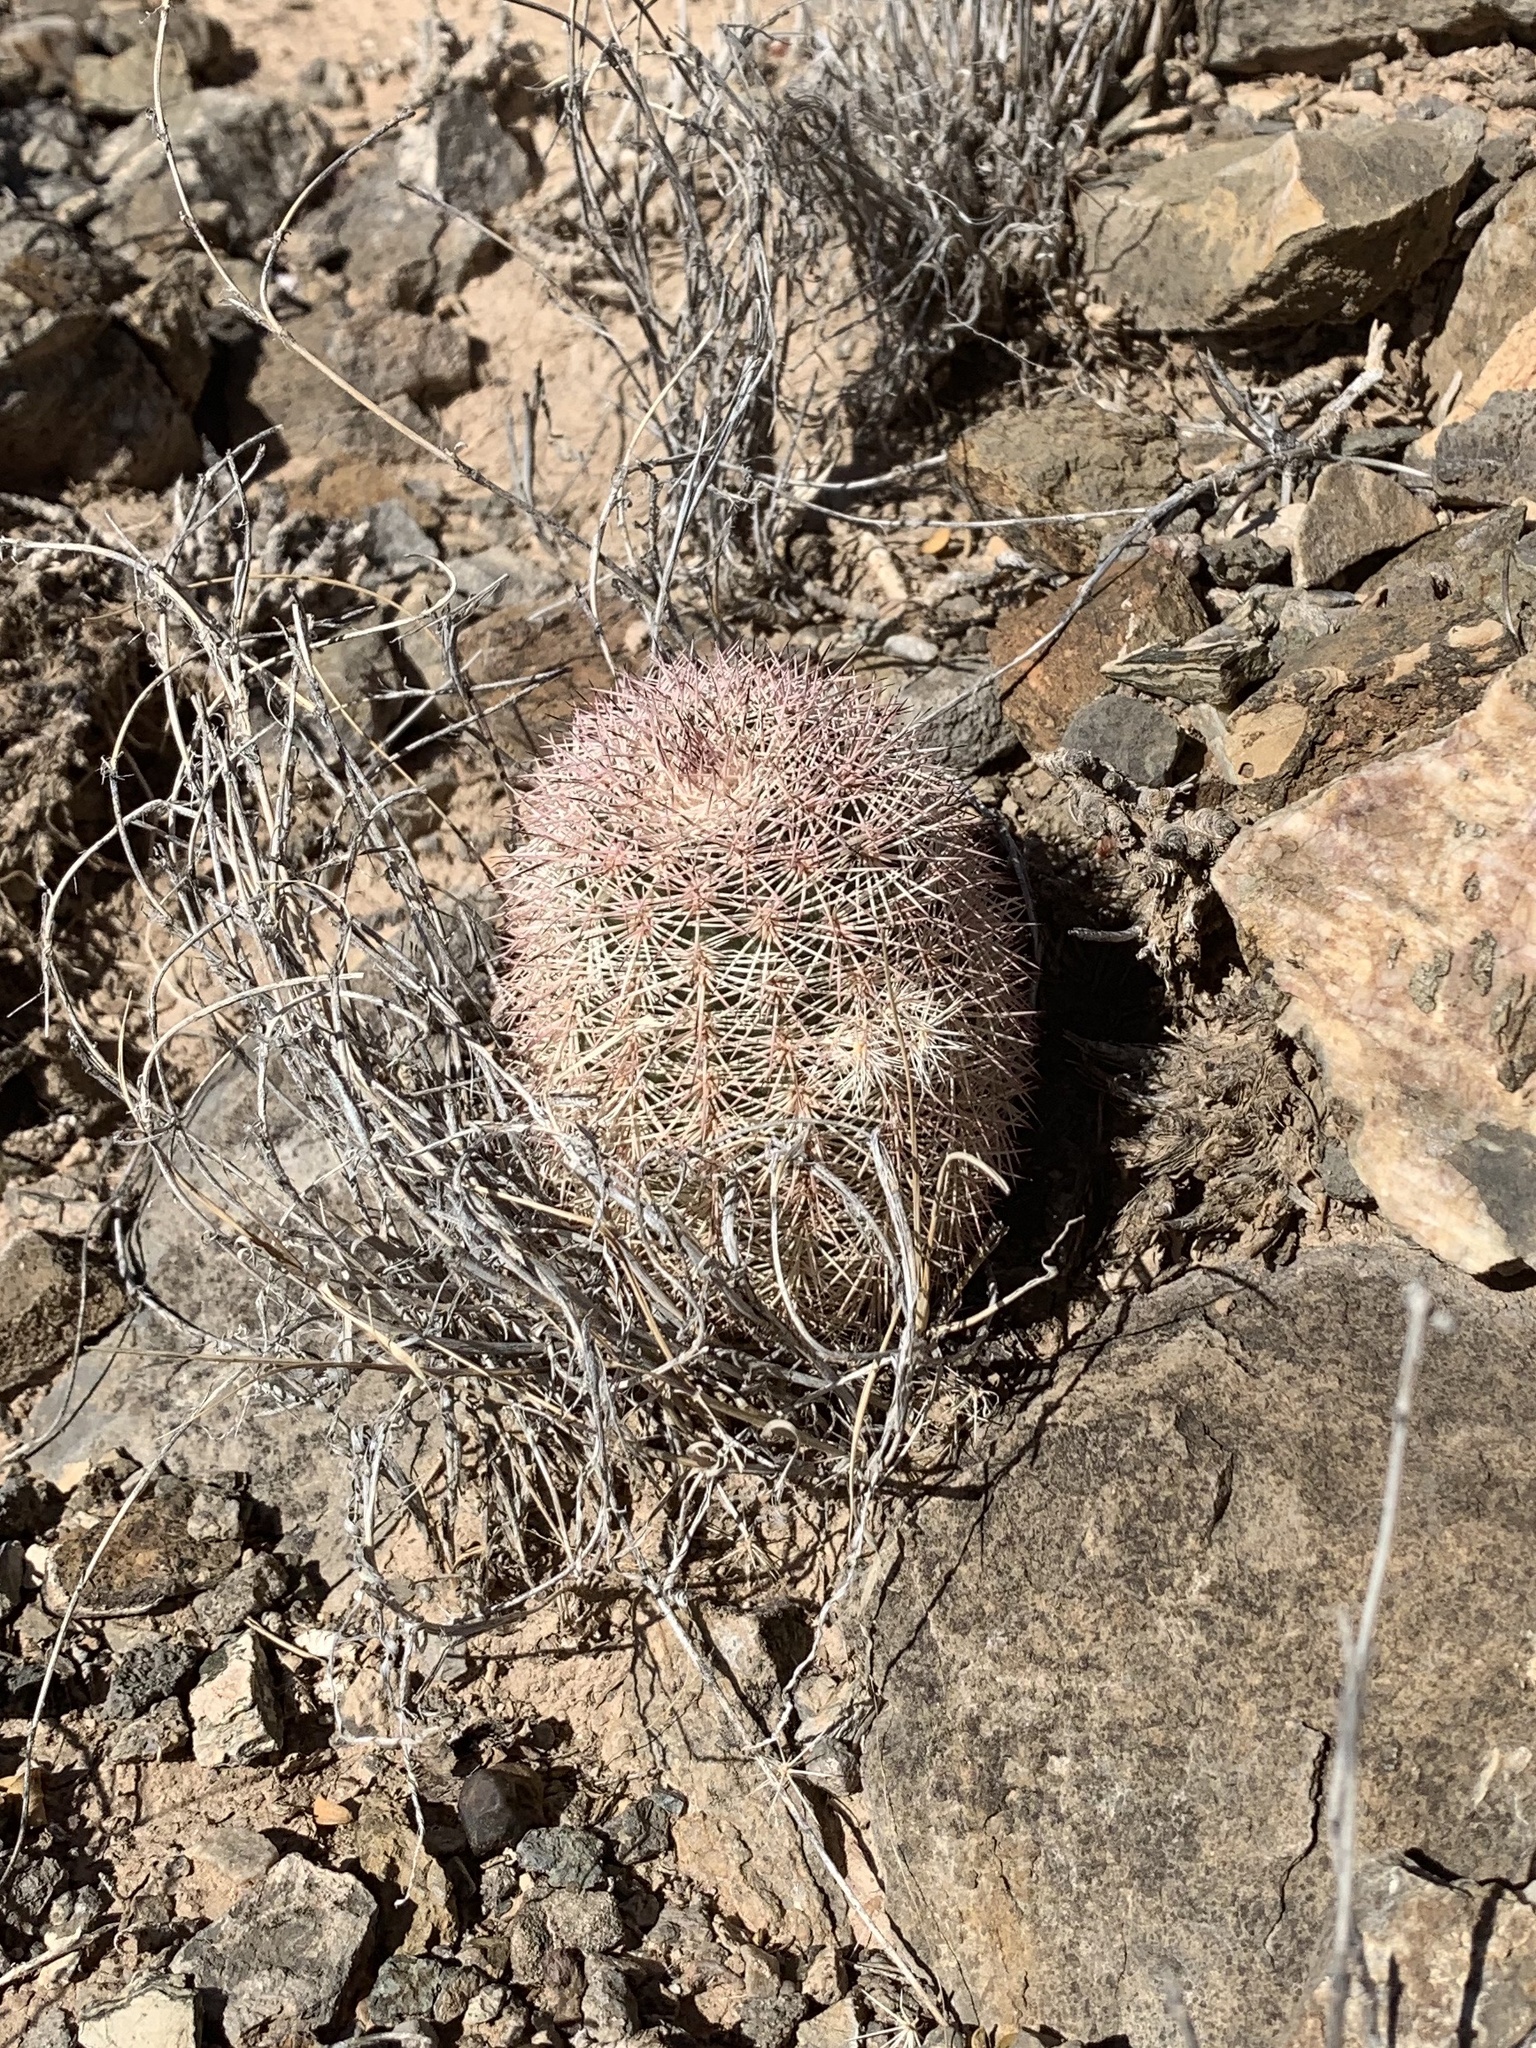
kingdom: Plantae
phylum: Tracheophyta
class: Magnoliopsida
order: Caryophyllales
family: Cactaceae
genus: Echinocereus
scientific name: Echinocereus dasyacanthus
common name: Spiny hedgehog cactus
